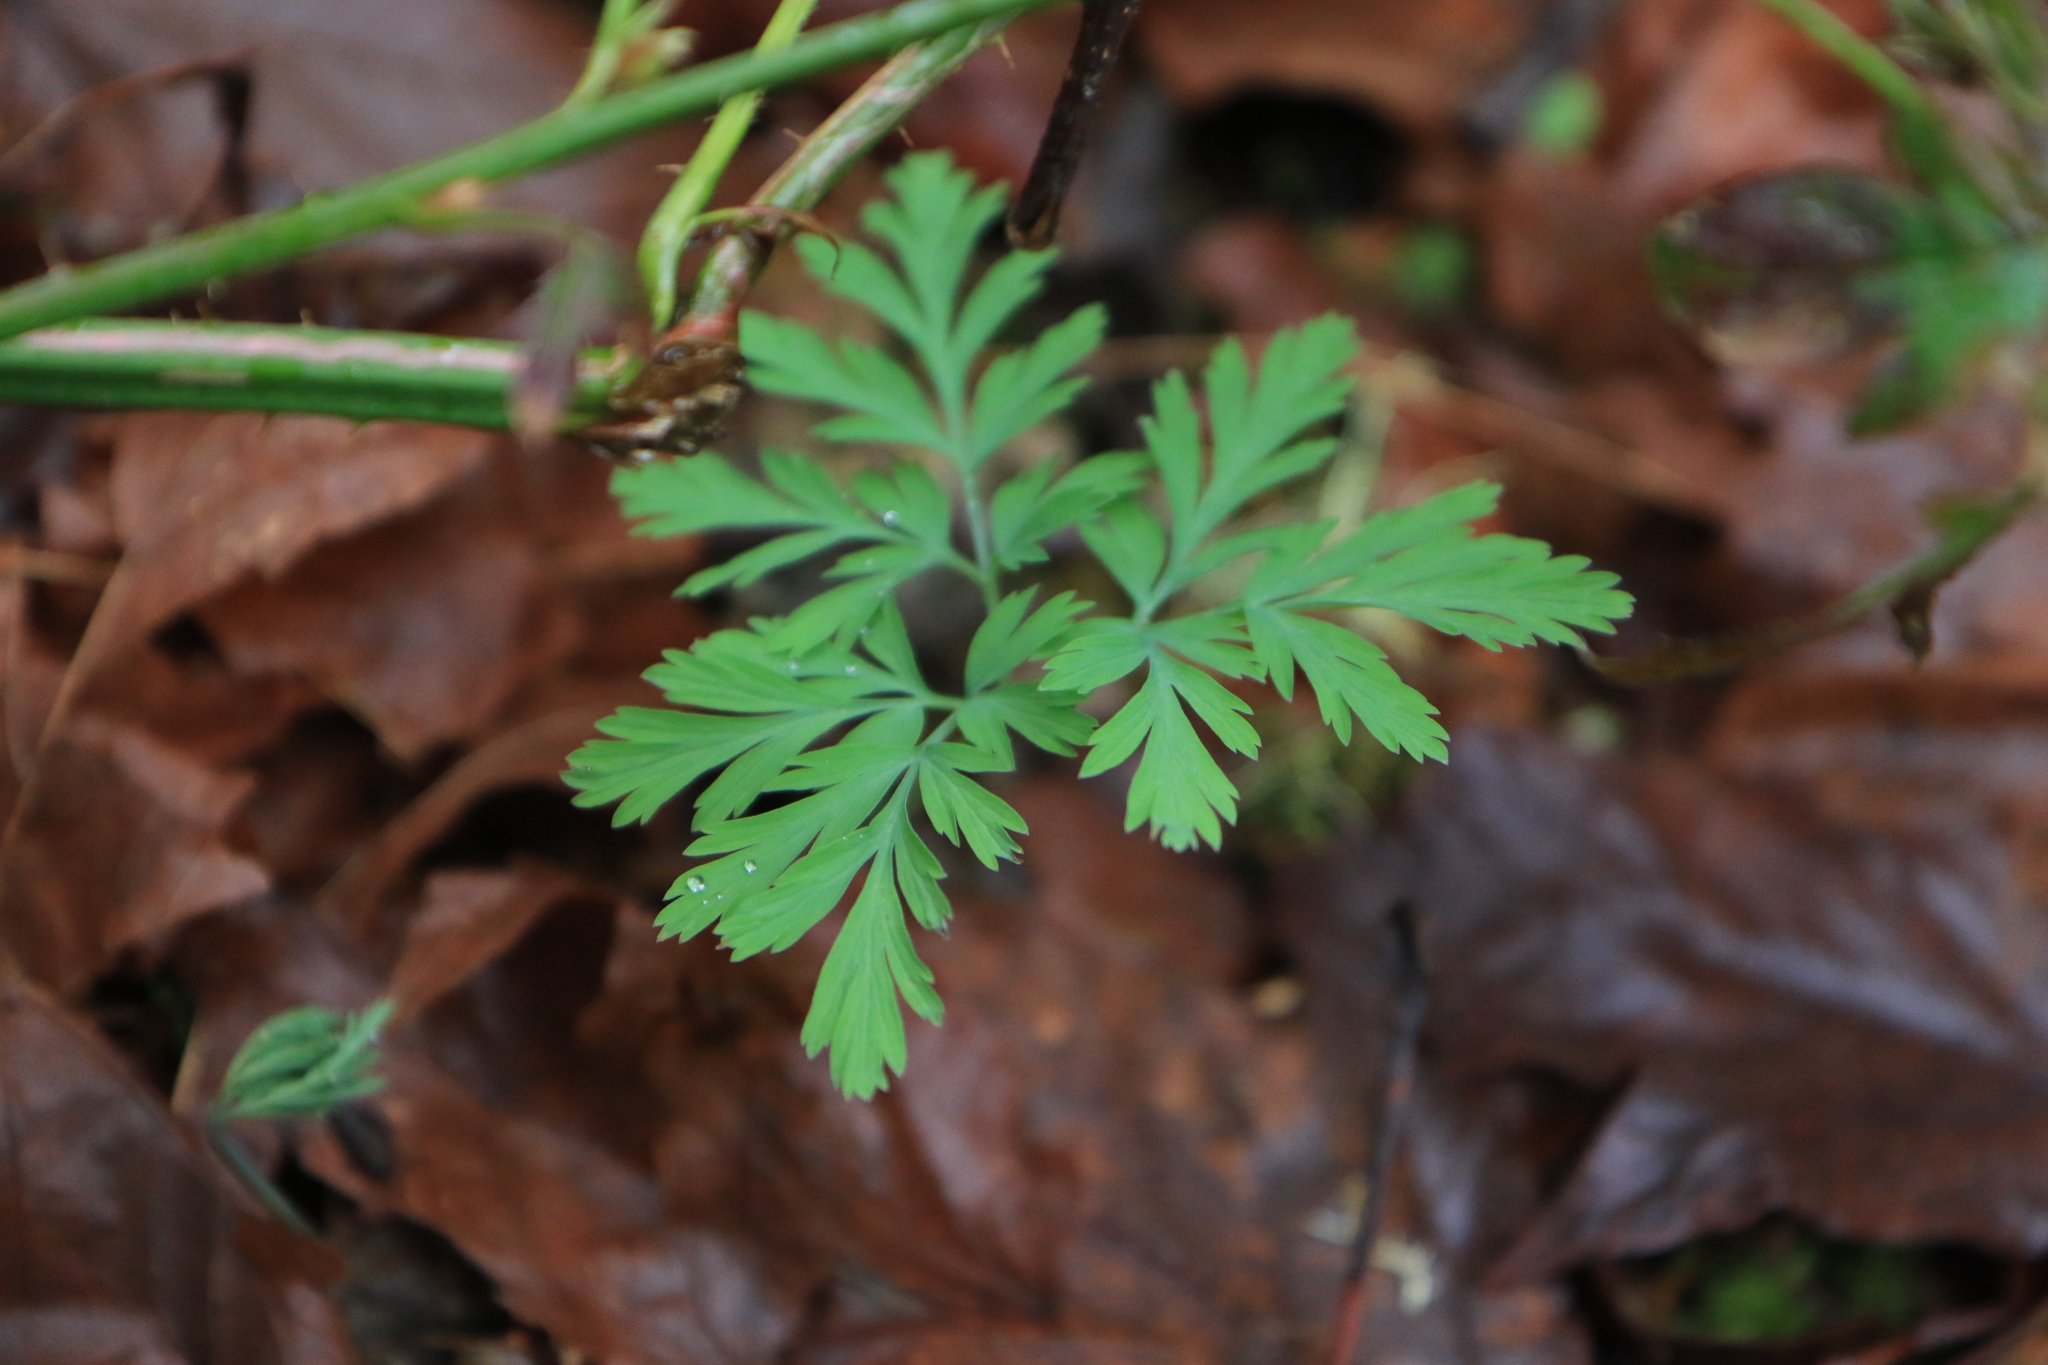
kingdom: Plantae
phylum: Tracheophyta
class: Magnoliopsida
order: Ranunculales
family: Papaveraceae
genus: Dicentra
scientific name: Dicentra formosa
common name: Bleeding-heart
